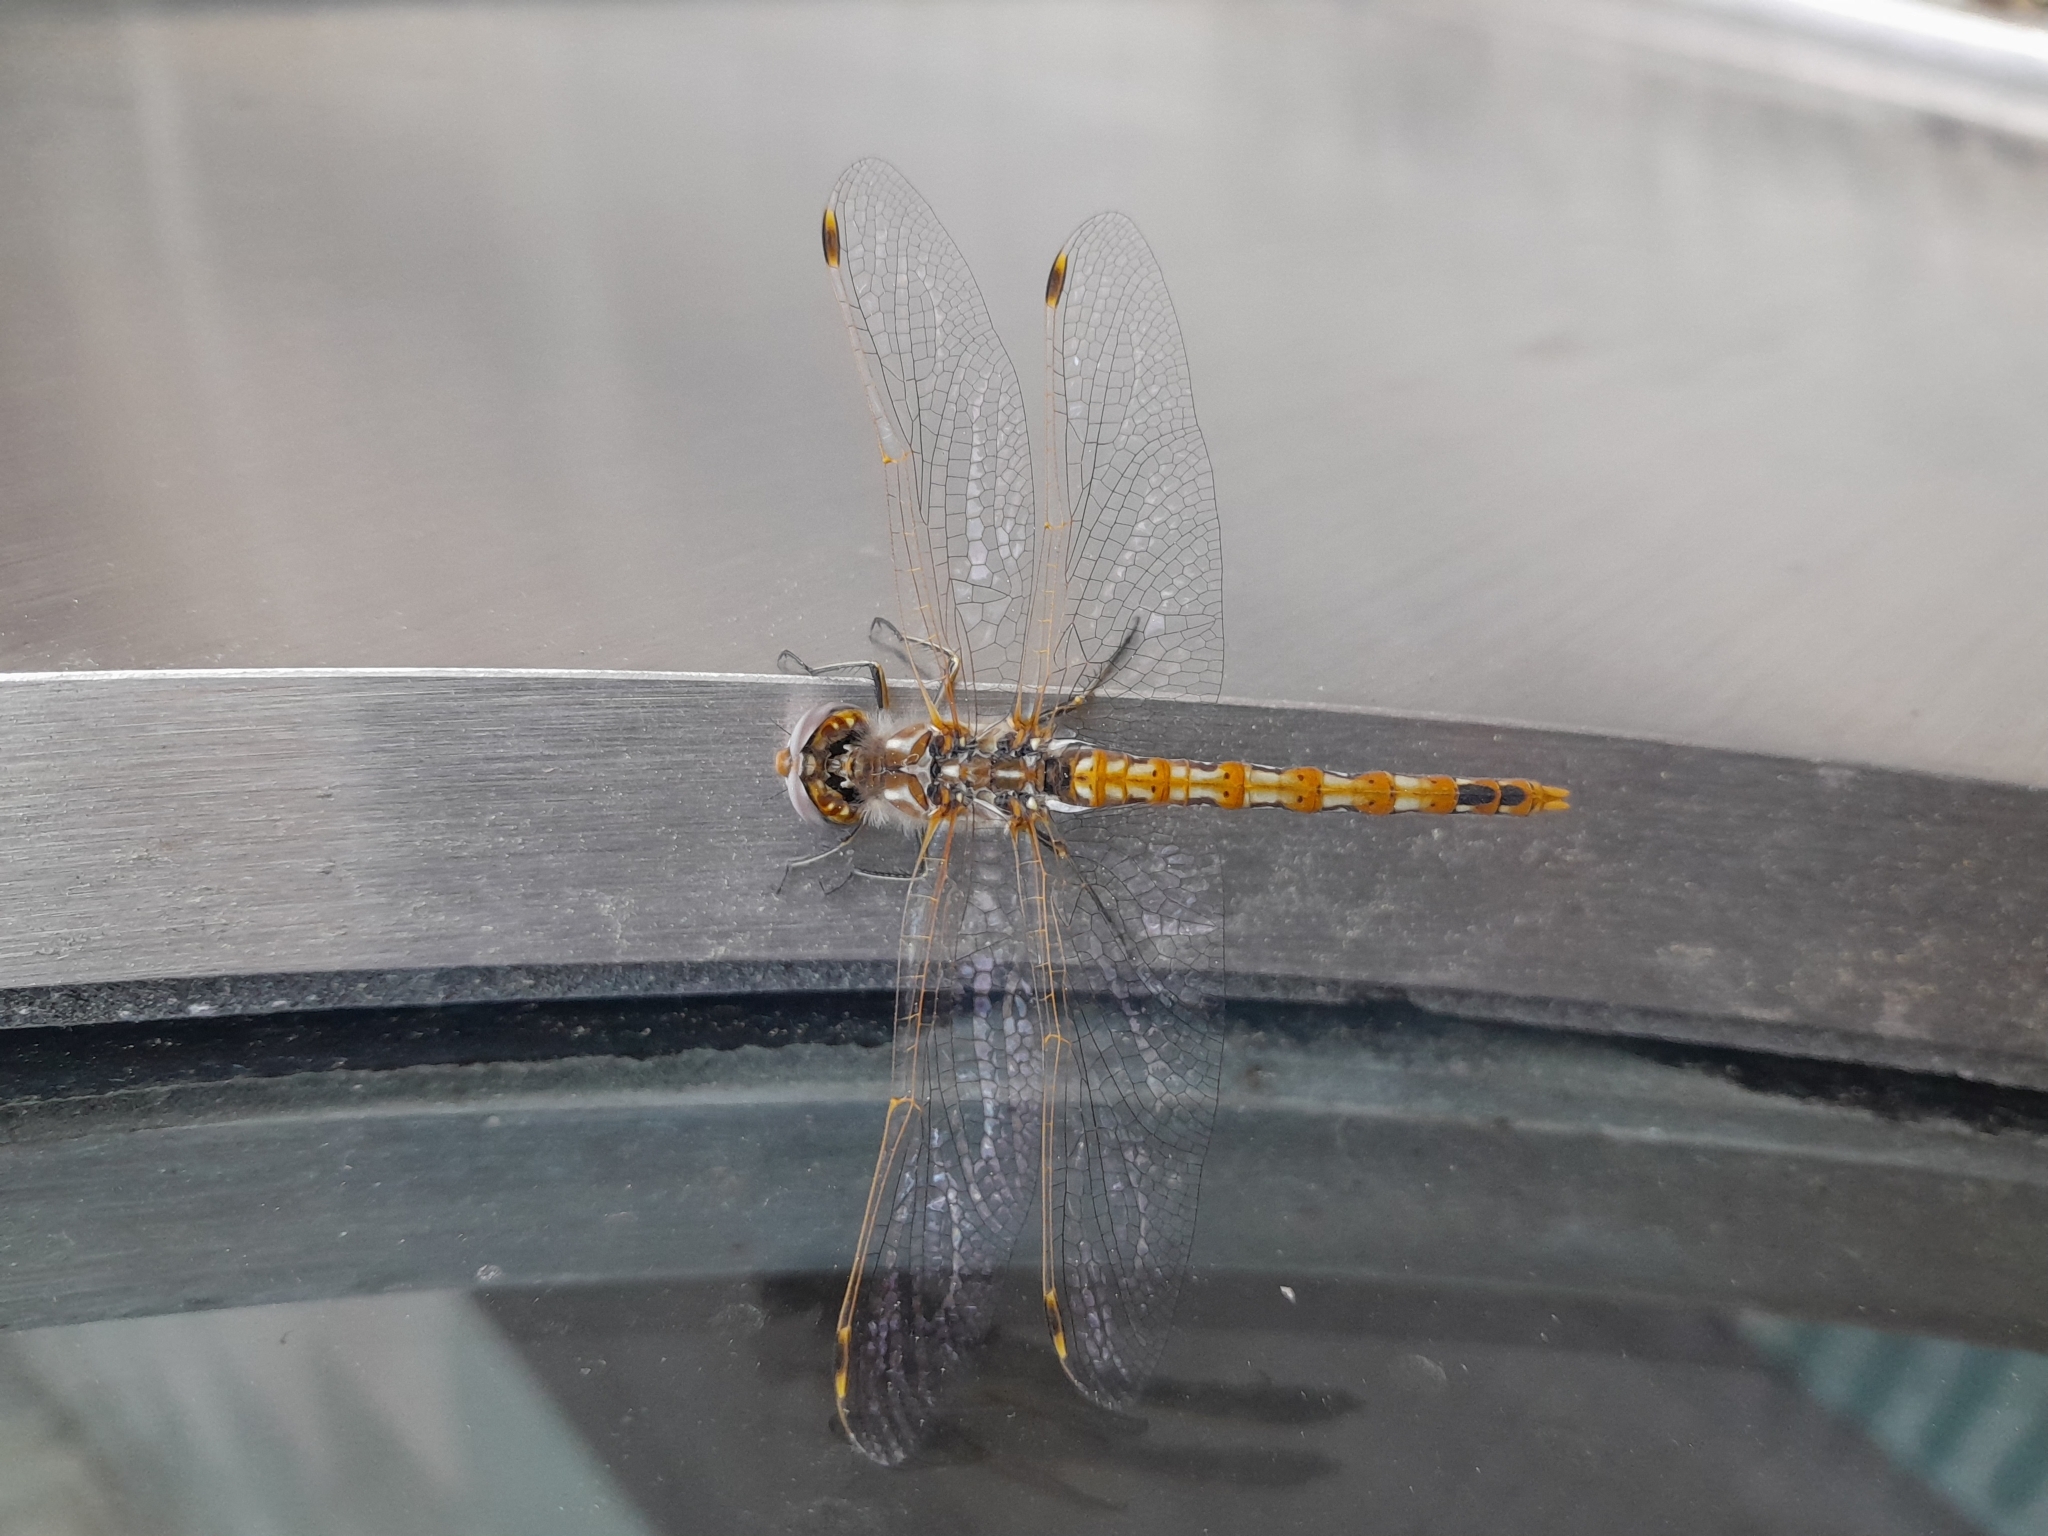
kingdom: Animalia
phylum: Arthropoda
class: Insecta
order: Odonata
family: Libellulidae
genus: Sympetrum
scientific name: Sympetrum corruptum
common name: Variegated meadowhawk
